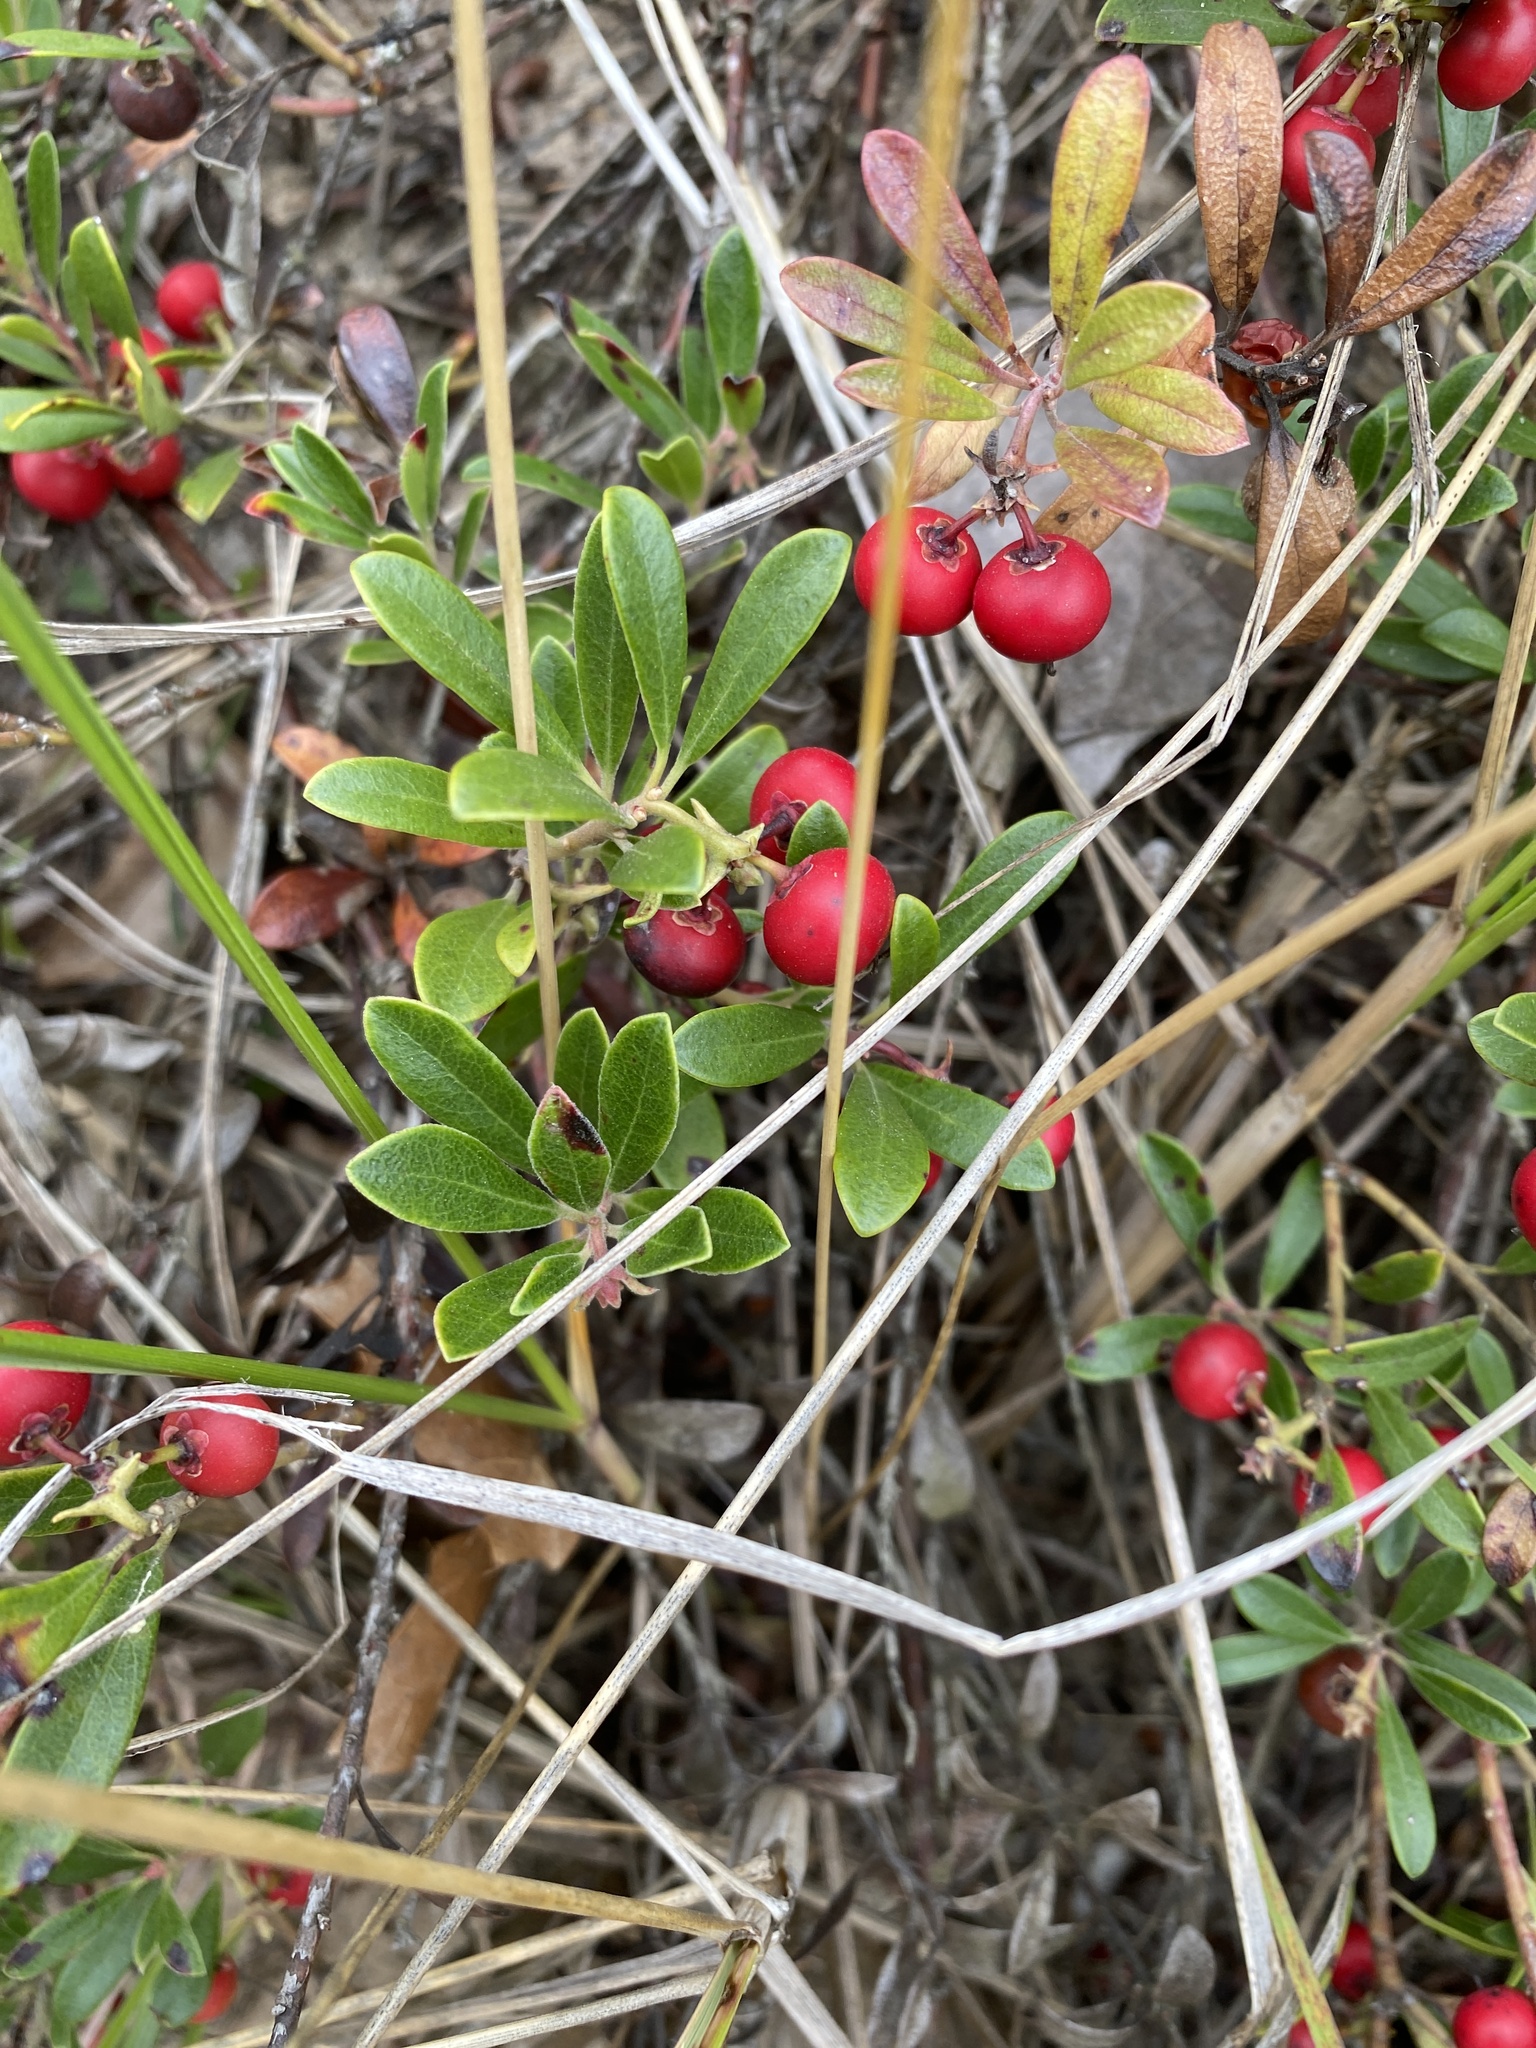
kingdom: Plantae
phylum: Tracheophyta
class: Magnoliopsida
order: Ericales
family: Ericaceae
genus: Arctostaphylos
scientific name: Arctostaphylos uva-ursi
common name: Bearberry
